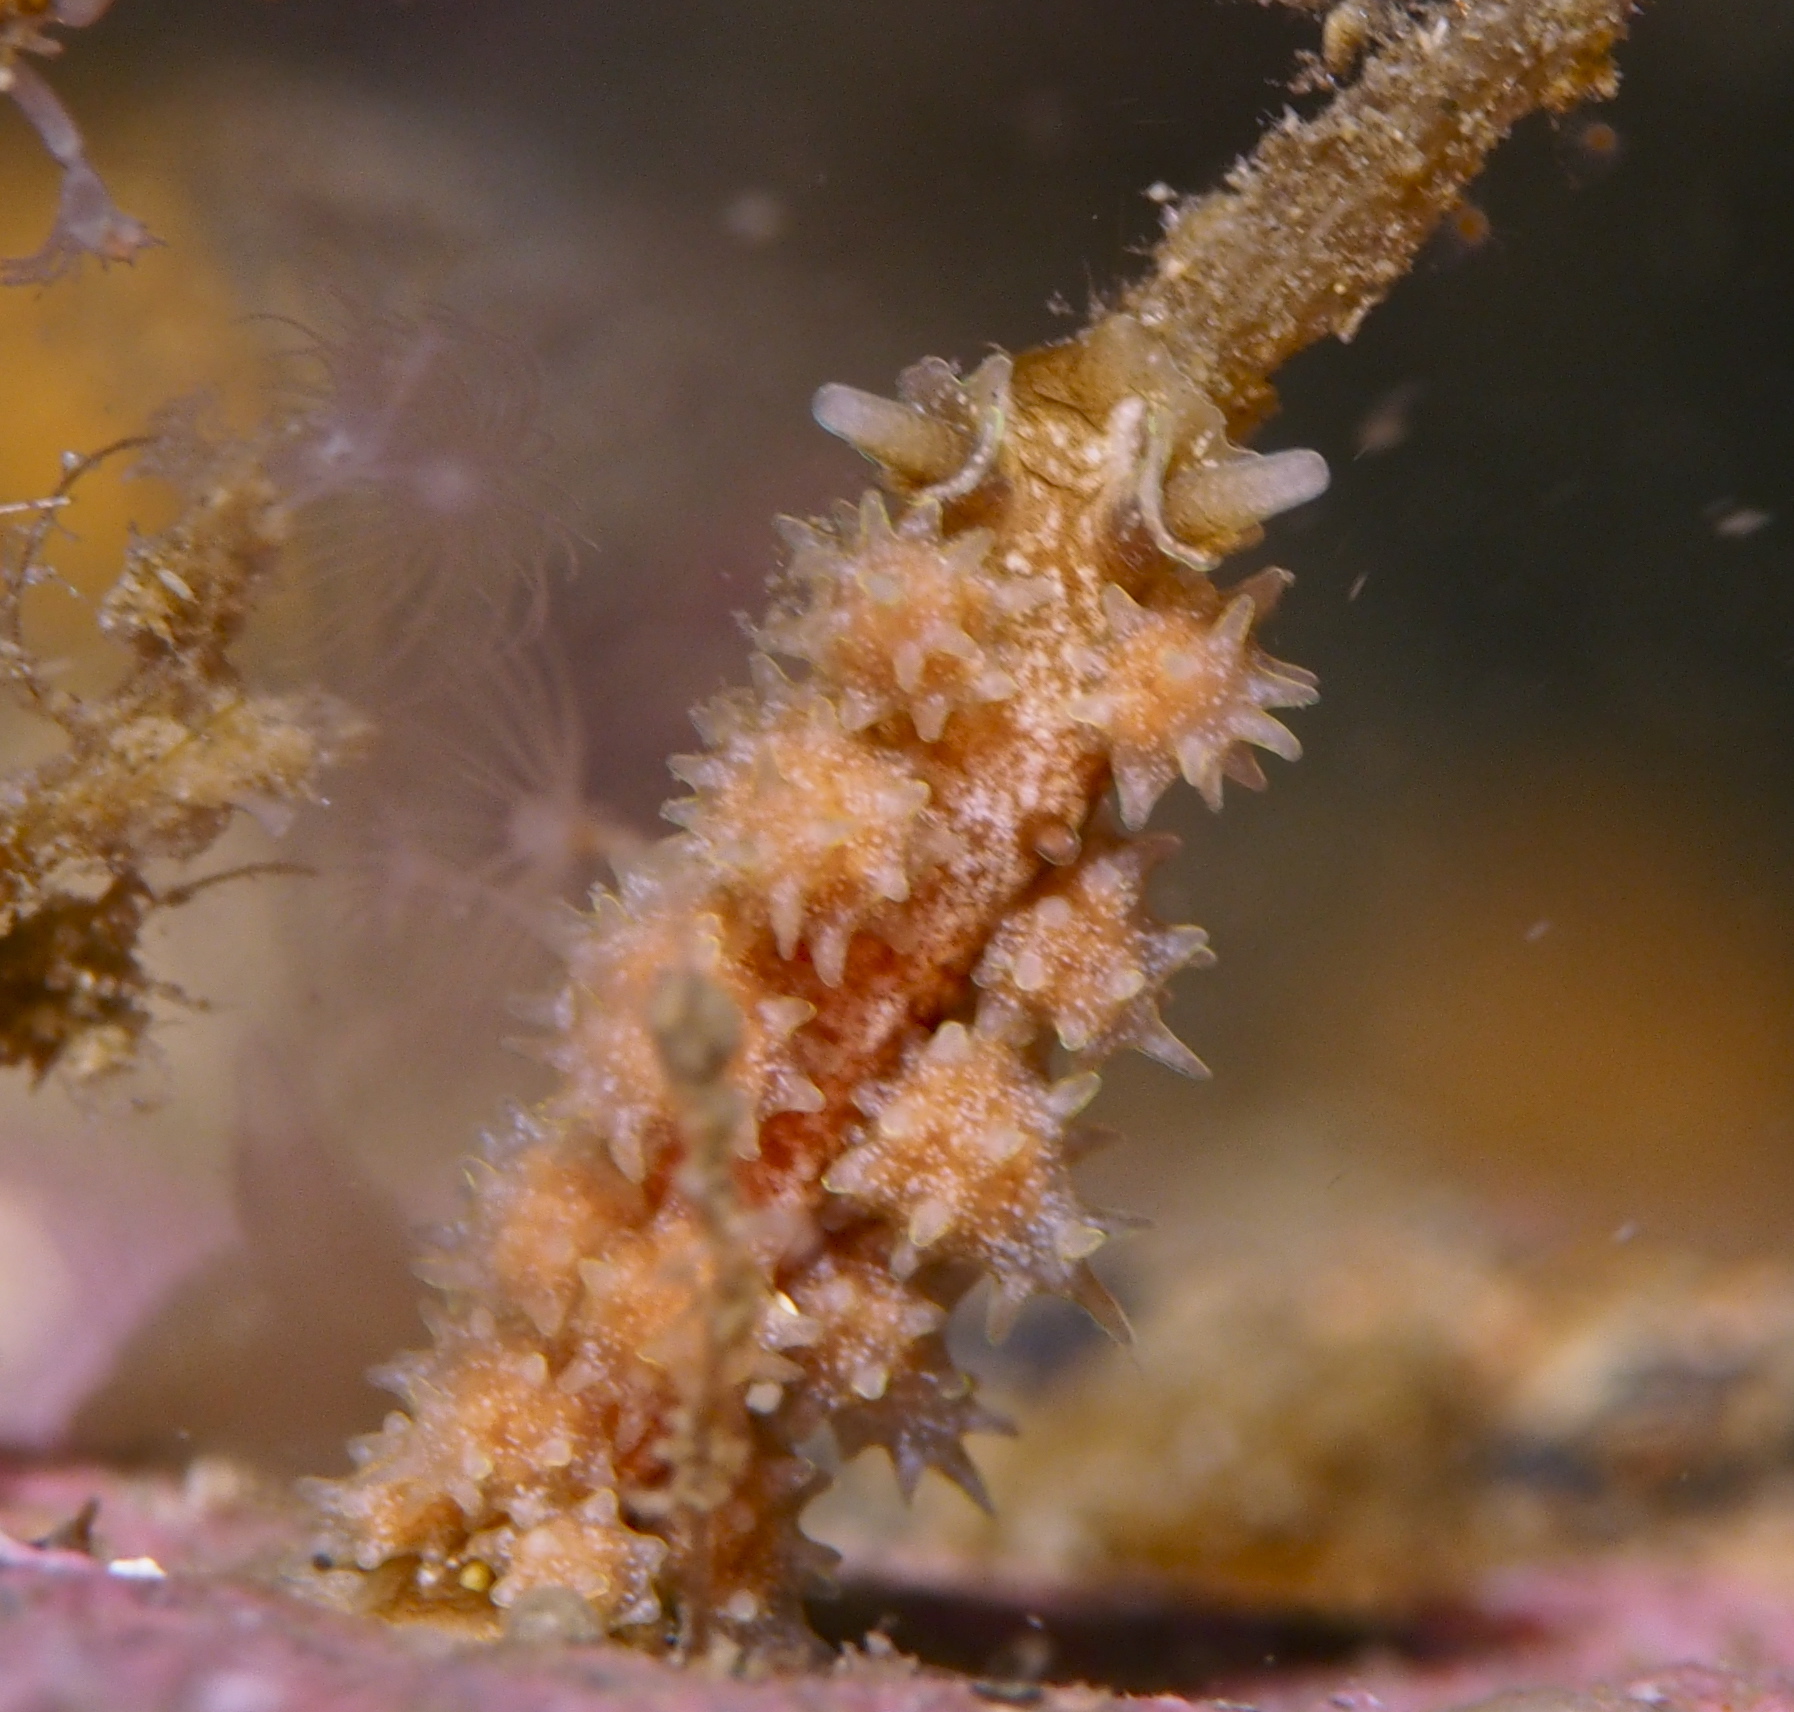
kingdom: Animalia
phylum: Mollusca
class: Gastropoda
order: Nudibranchia
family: Dotidae
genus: Doto
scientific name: Doto hystrix
